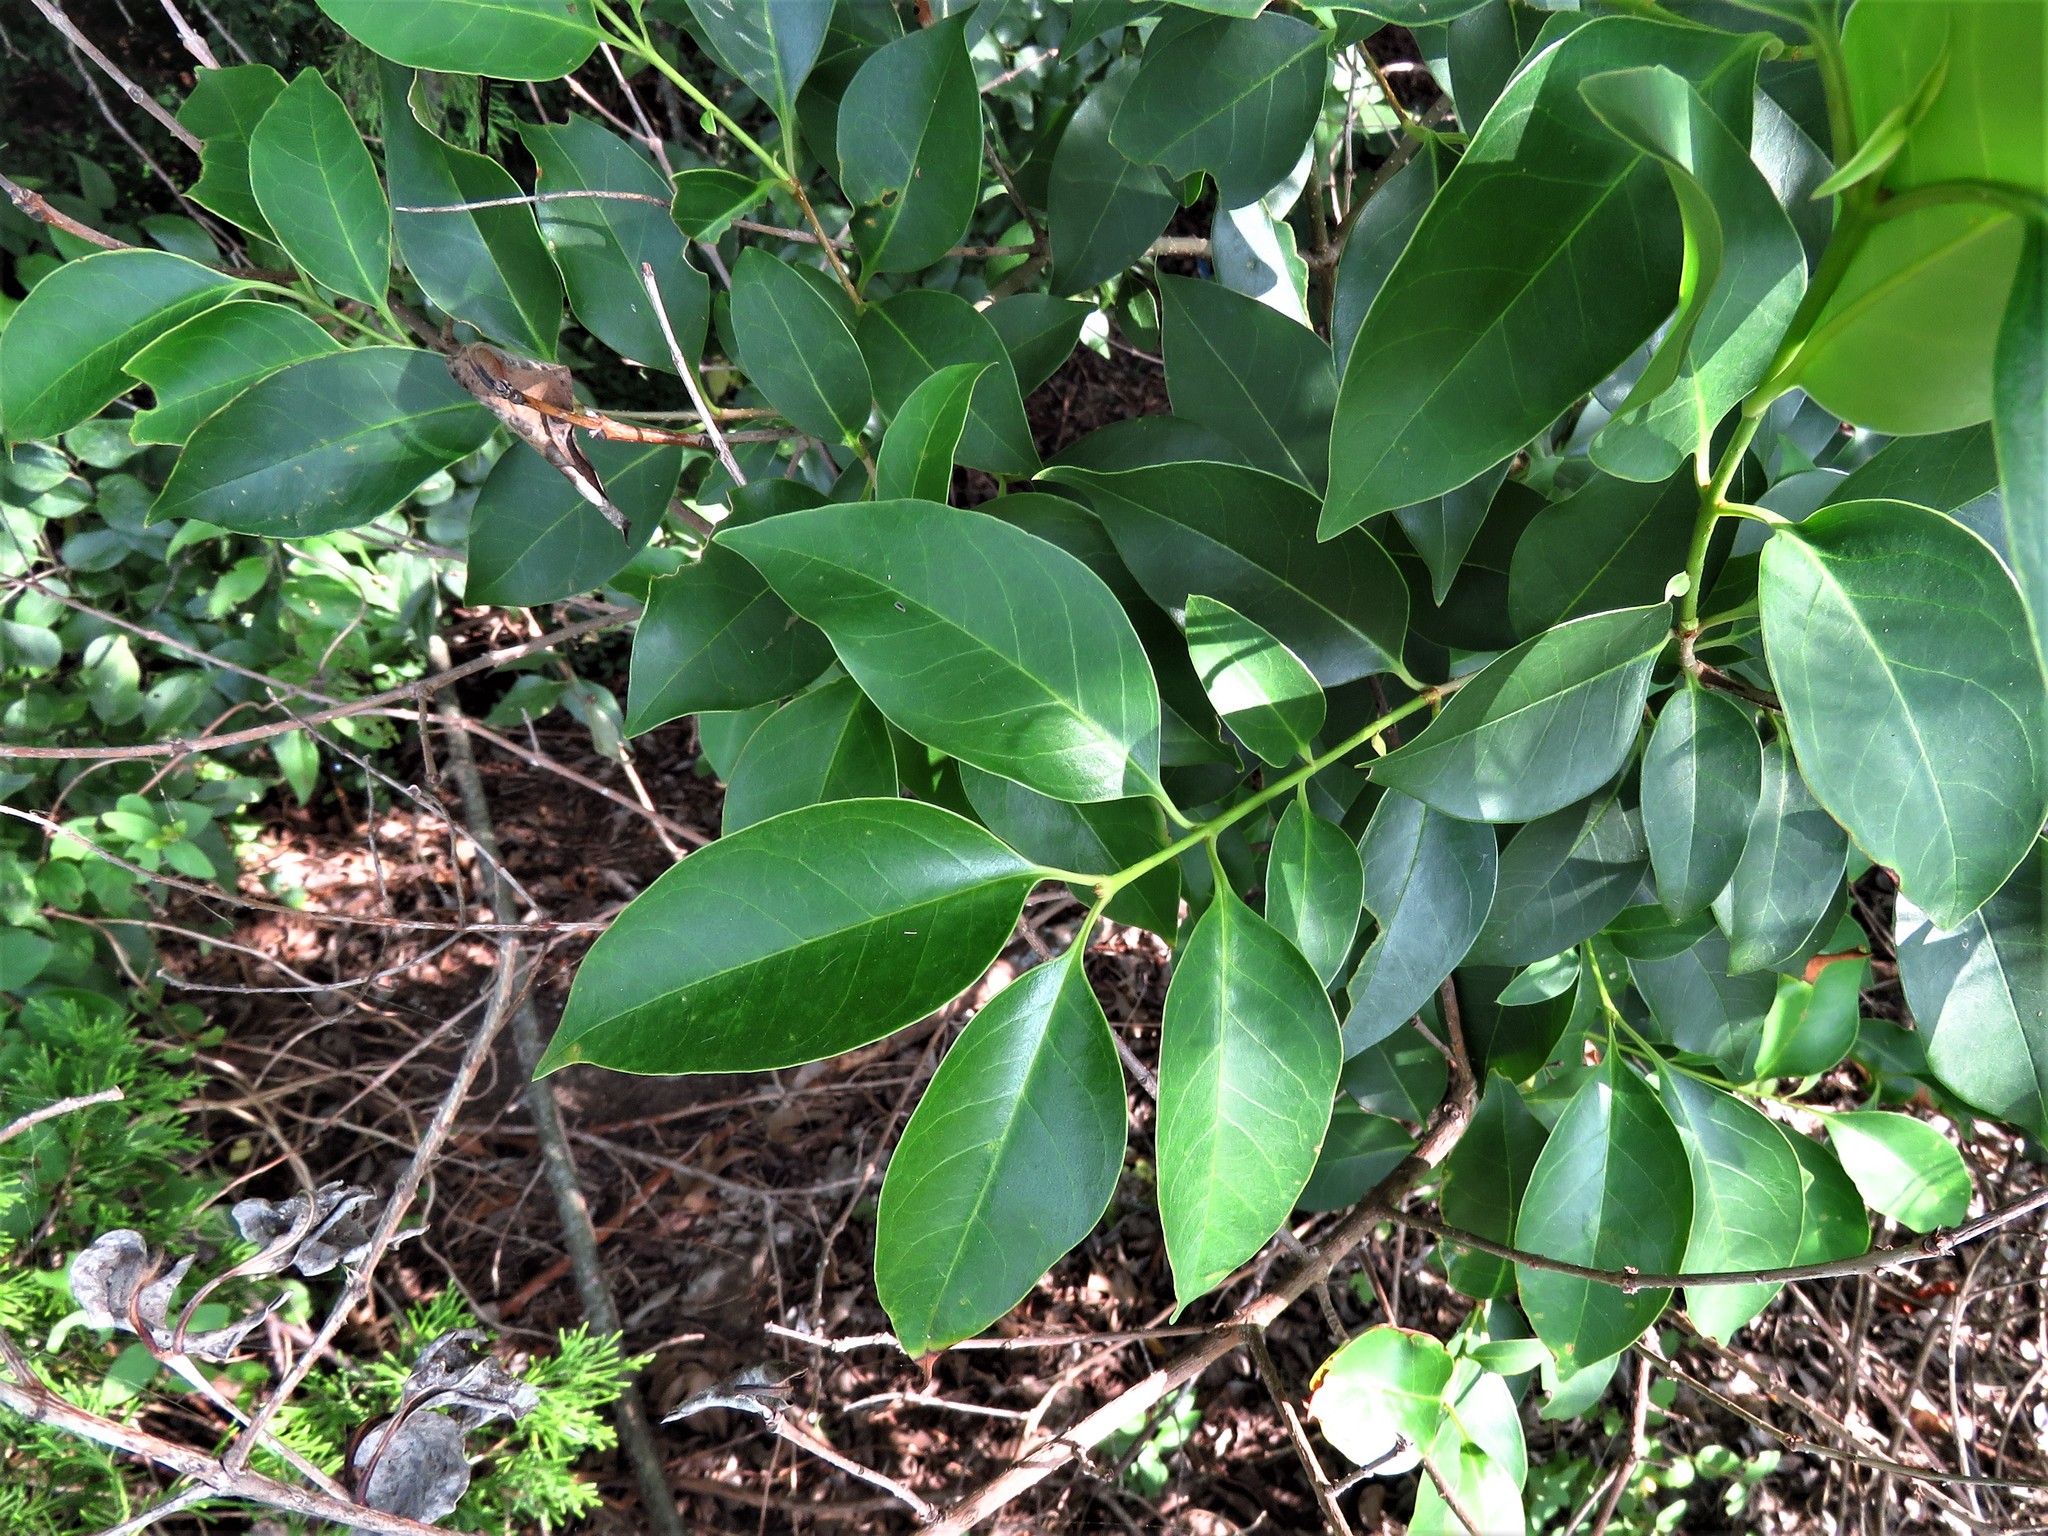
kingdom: Plantae
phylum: Tracheophyta
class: Magnoliopsida
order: Lamiales
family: Oleaceae
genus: Ligustrum
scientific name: Ligustrum lucidum
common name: Glossy privet
